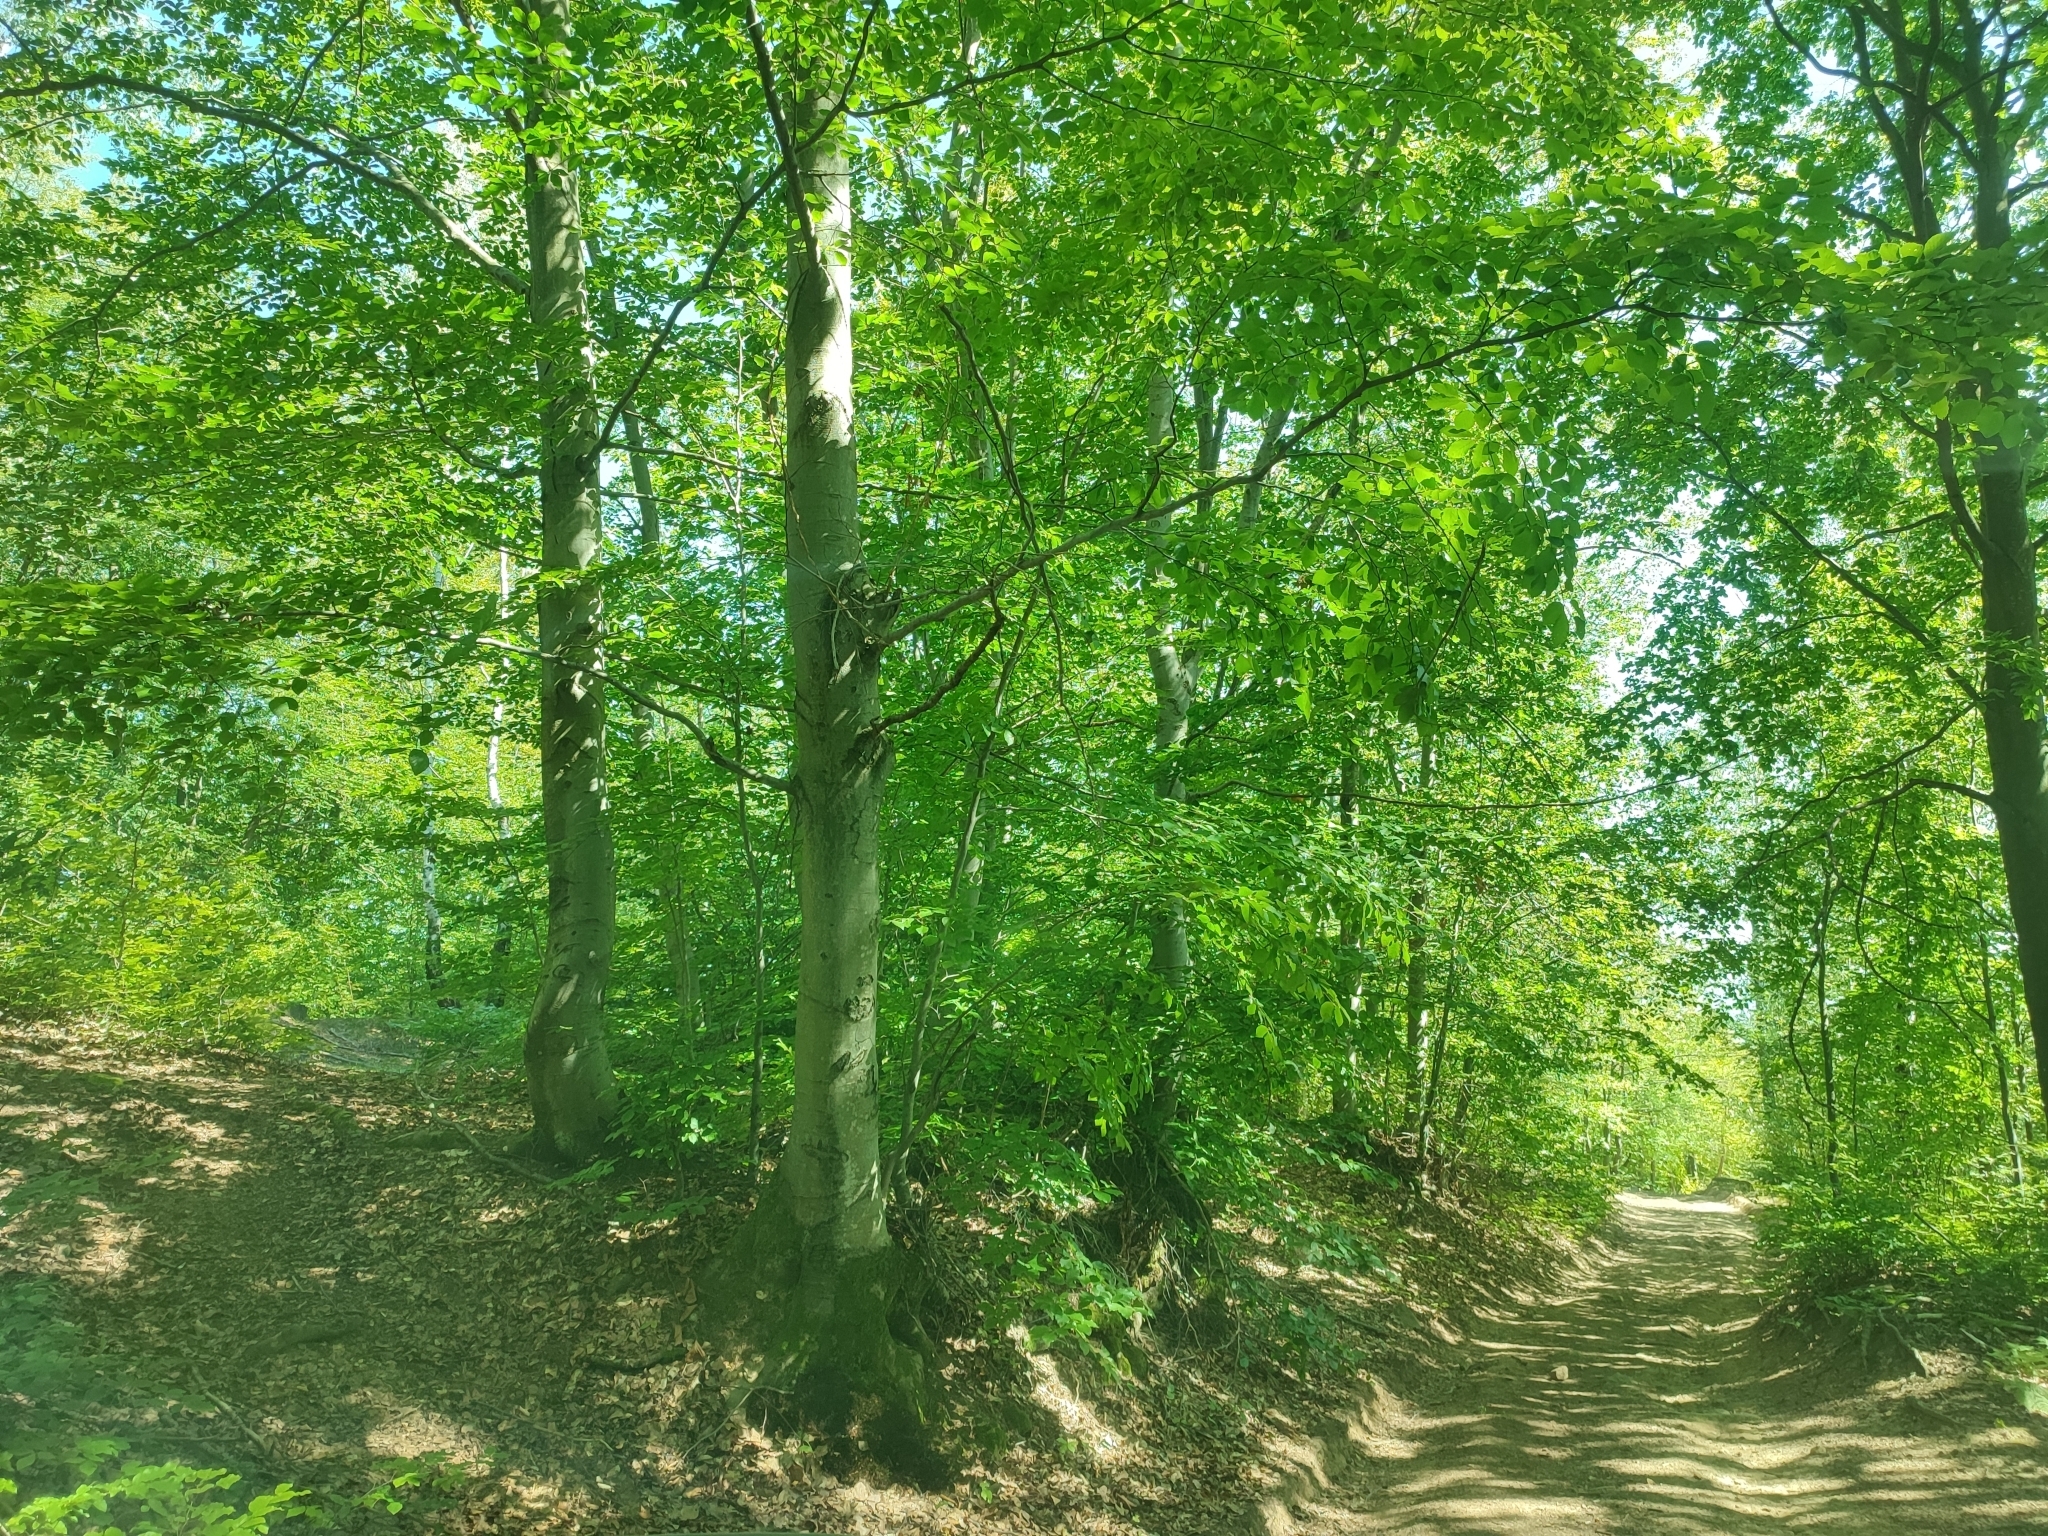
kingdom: Plantae
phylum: Tracheophyta
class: Magnoliopsida
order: Fagales
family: Fagaceae
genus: Fagus
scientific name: Fagus sylvatica
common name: Beech
